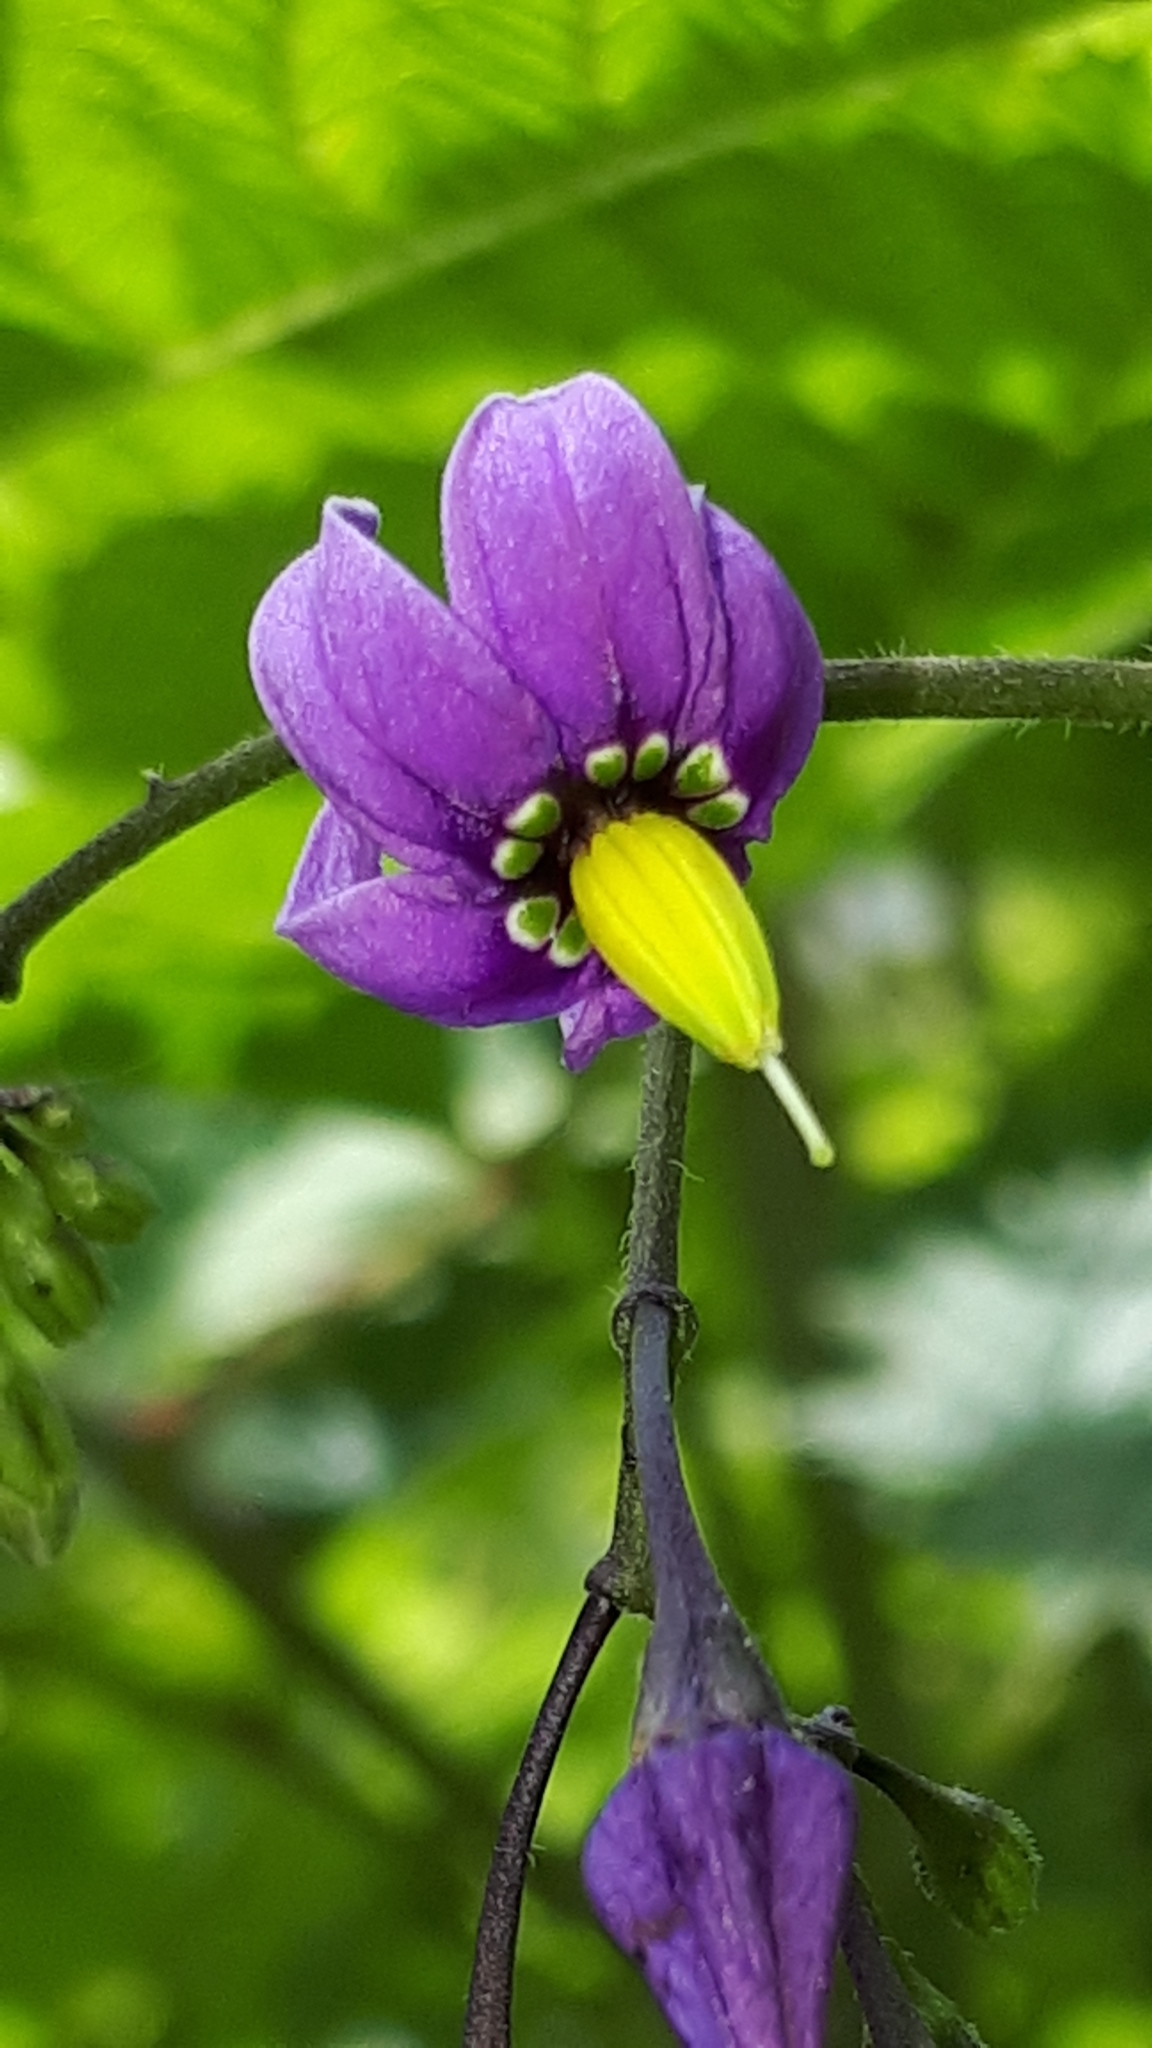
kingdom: Plantae
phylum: Tracheophyta
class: Magnoliopsida
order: Solanales
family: Solanaceae
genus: Solanum
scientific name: Solanum dulcamara
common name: Climbing nightshade
